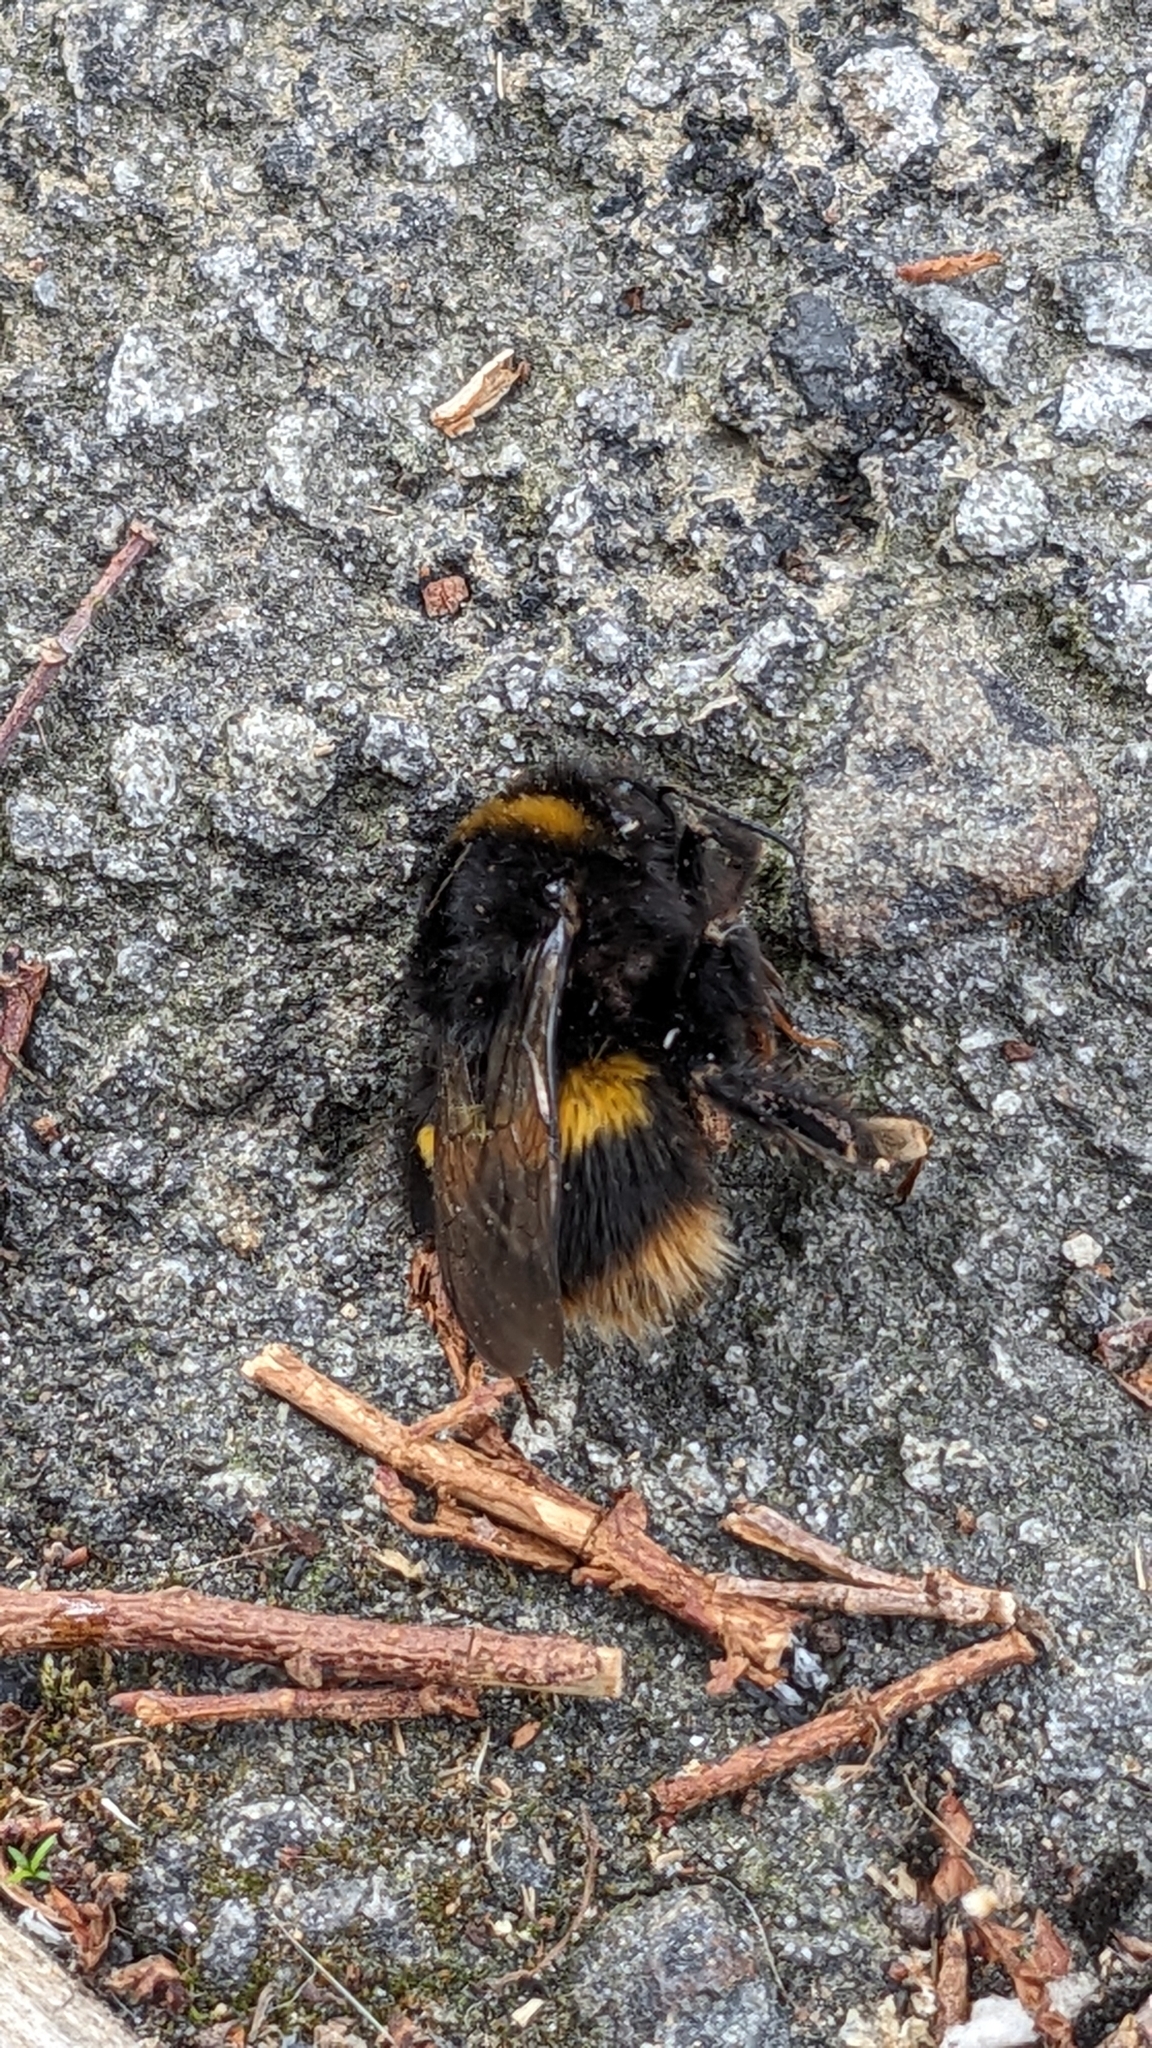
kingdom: Animalia
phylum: Arthropoda
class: Insecta
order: Hymenoptera
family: Apidae
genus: Bombus
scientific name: Bombus terrestris
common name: Buff-tailed bumblebee
